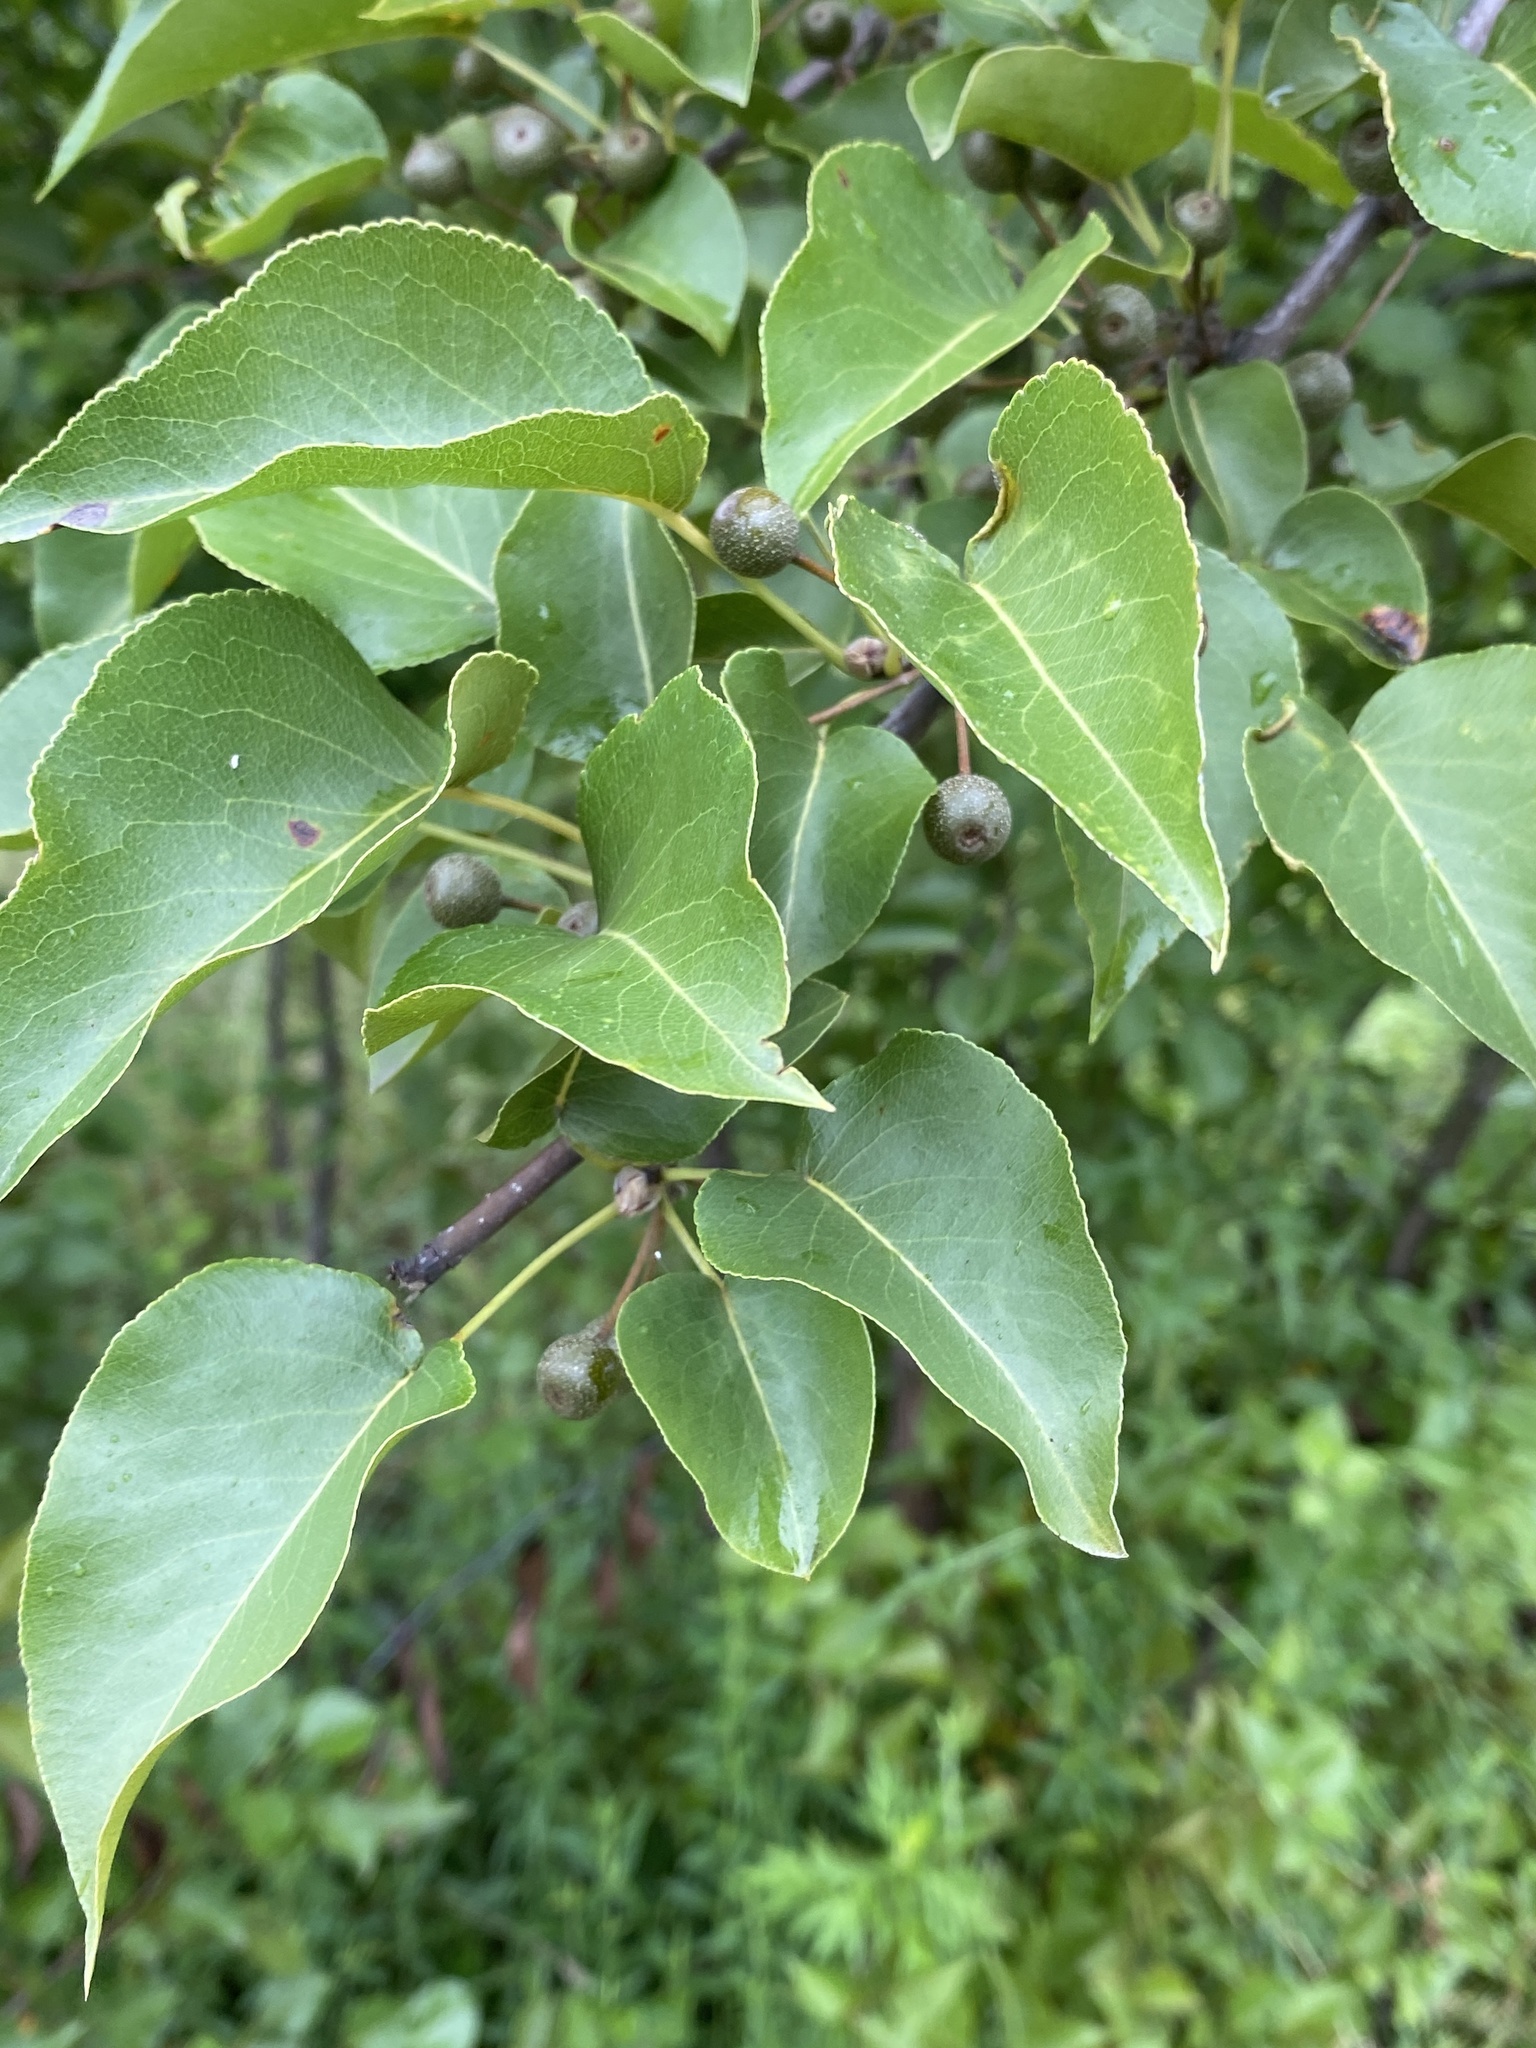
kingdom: Plantae
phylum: Tracheophyta
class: Magnoliopsida
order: Rosales
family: Rosaceae
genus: Pyrus
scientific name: Pyrus calleryana
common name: Callery pear
